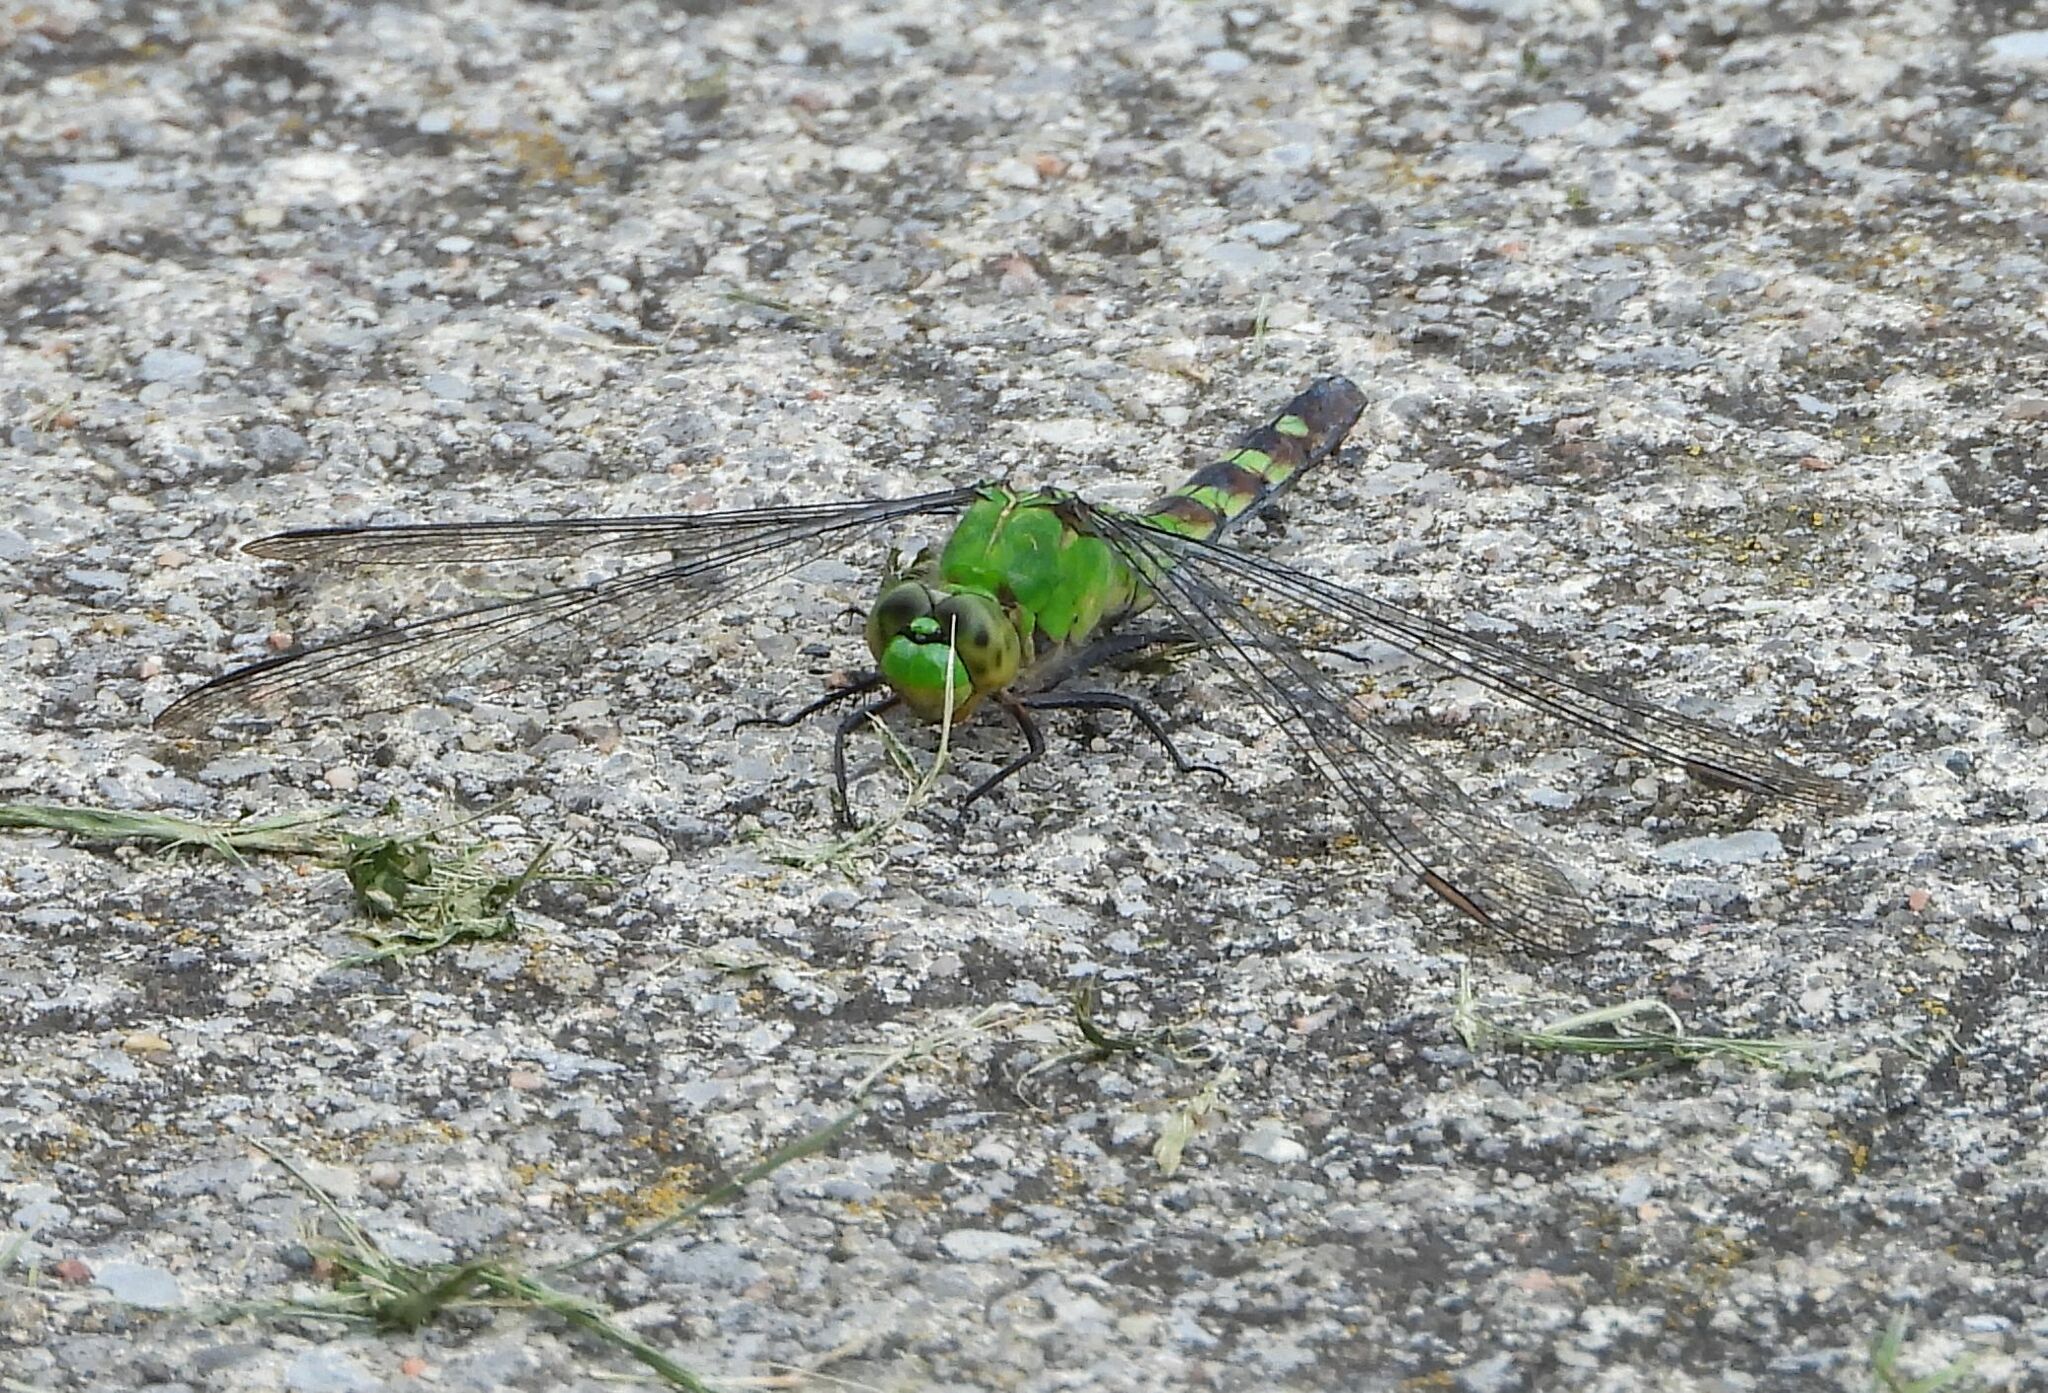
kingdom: Animalia
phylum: Arthropoda
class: Insecta
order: Odonata
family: Libellulidae
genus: Erythemis
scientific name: Erythemis simplicicollis
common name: Eastern pondhawk
